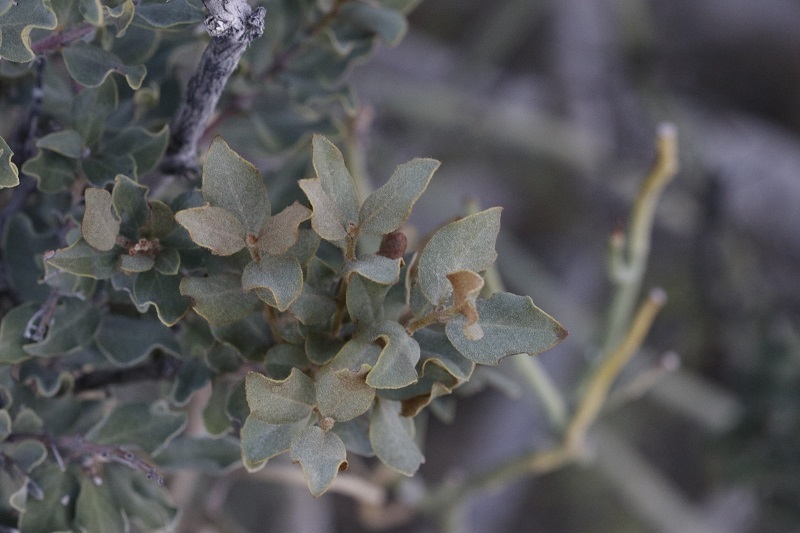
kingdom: Plantae
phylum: Tracheophyta
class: Magnoliopsida
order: Ericales
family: Ebenaceae
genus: Euclea
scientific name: Euclea crispa
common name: Blue guarri
